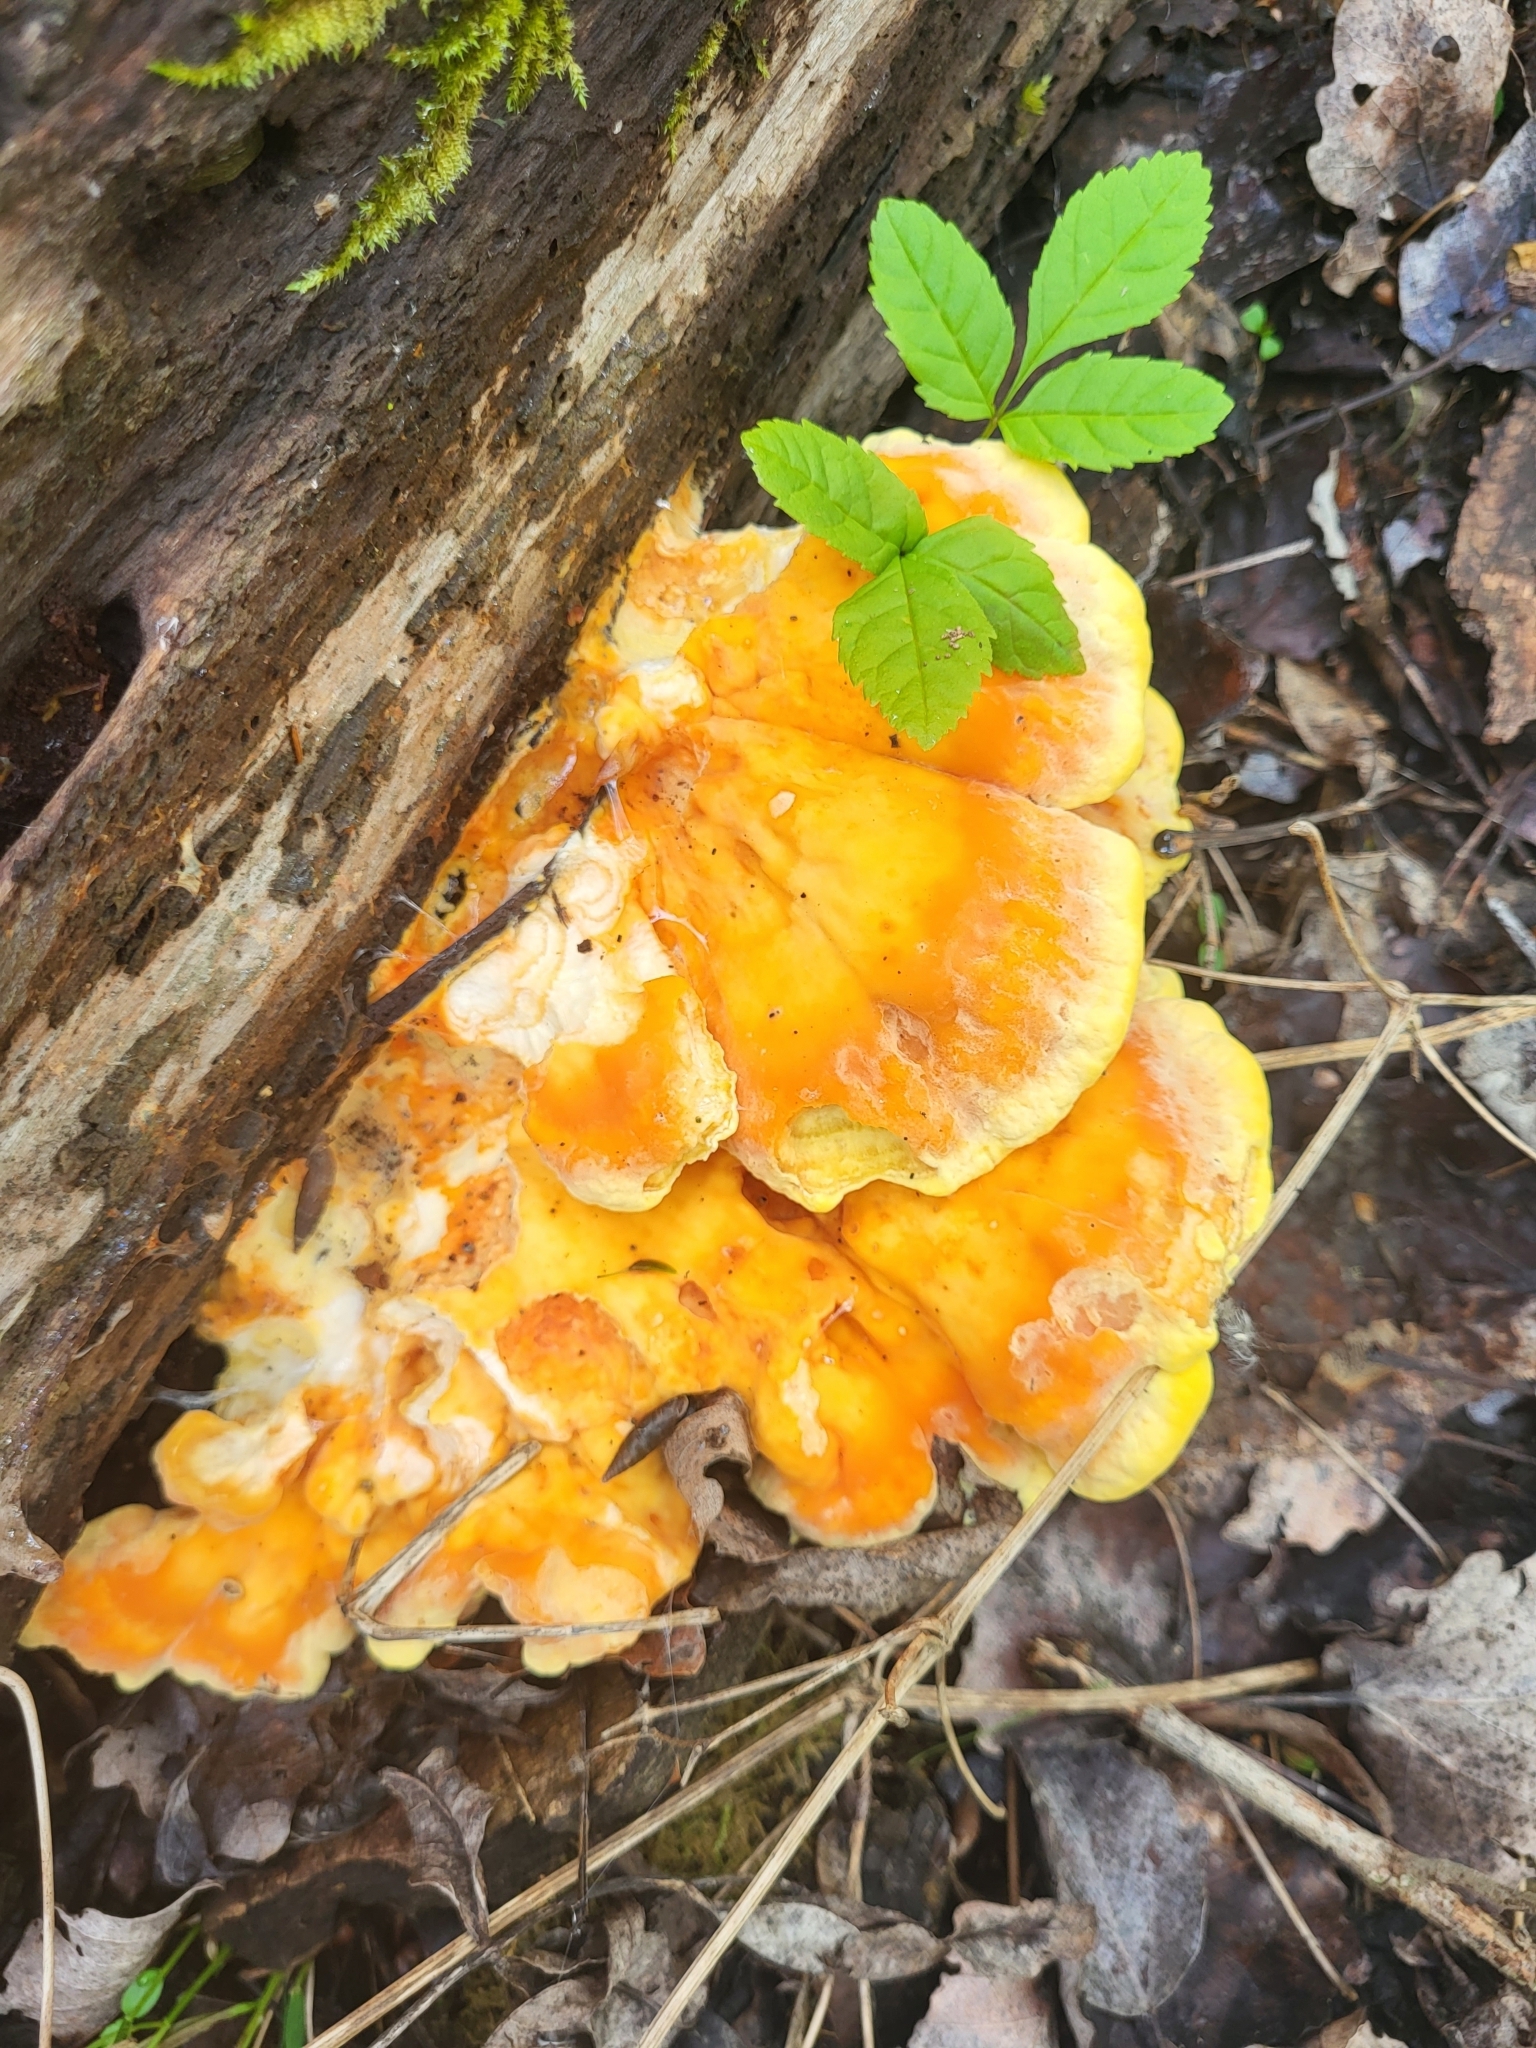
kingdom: Fungi
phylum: Basidiomycota
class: Agaricomycetes
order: Polyporales
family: Laetiporaceae
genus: Laetiporus
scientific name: Laetiporus sulphureus
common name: Chicken of the woods
